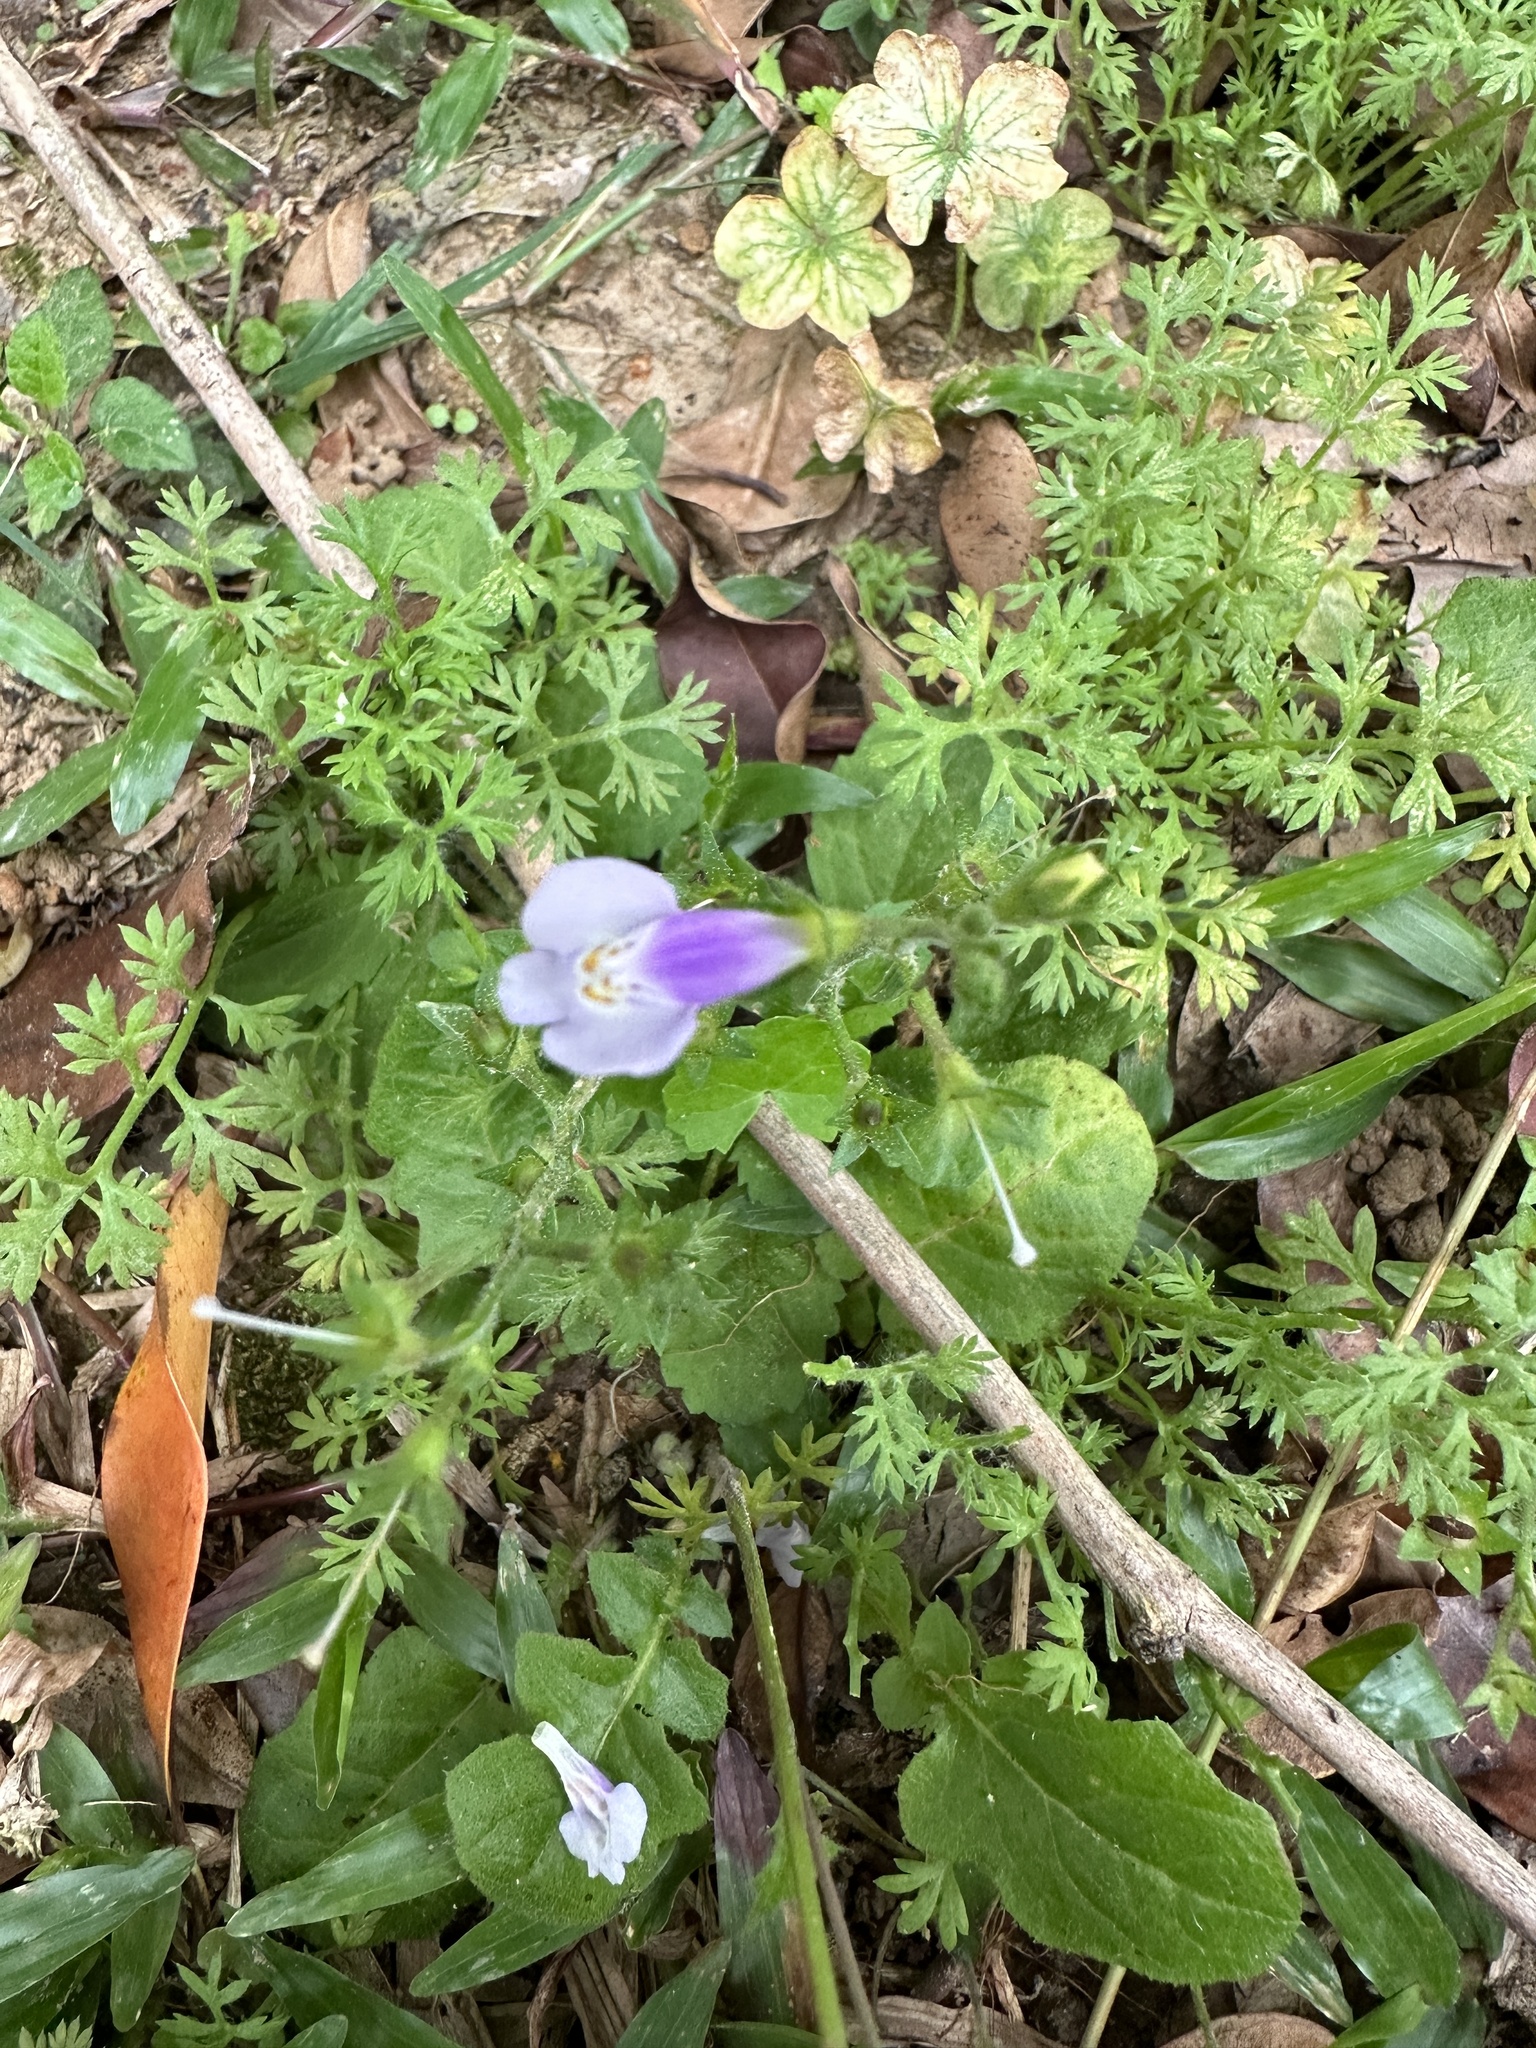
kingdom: Plantae
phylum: Tracheophyta
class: Magnoliopsida
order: Lamiales
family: Mazaceae
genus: Mazus
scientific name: Mazus fauriei
